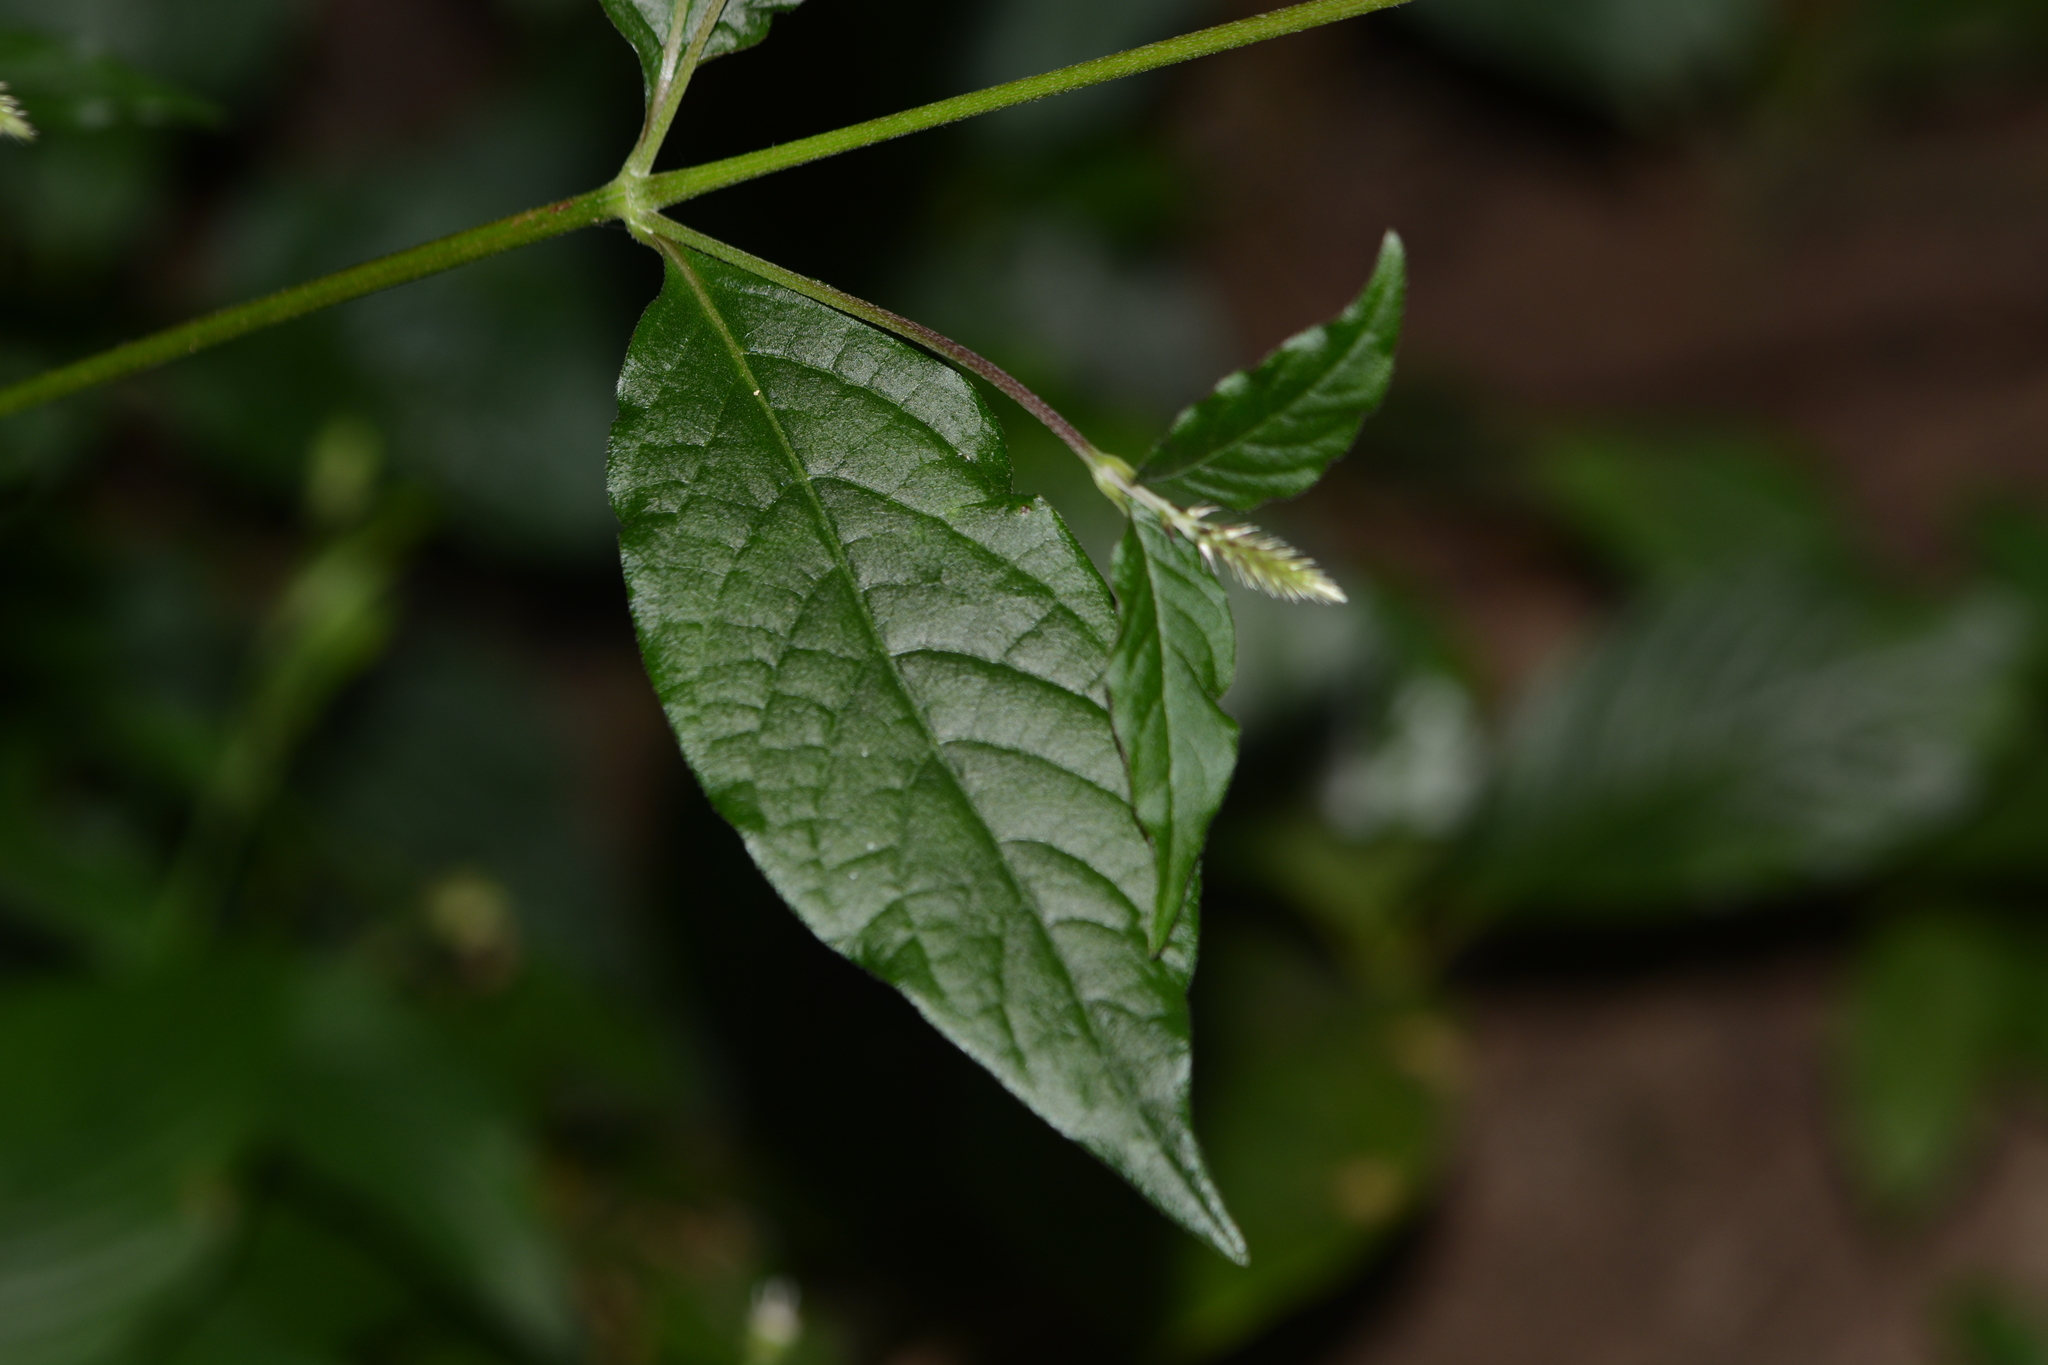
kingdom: Plantae
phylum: Tracheophyta
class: Magnoliopsida
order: Caryophyllales
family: Amaranthaceae
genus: Achyranthes
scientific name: Achyranthes coynei
